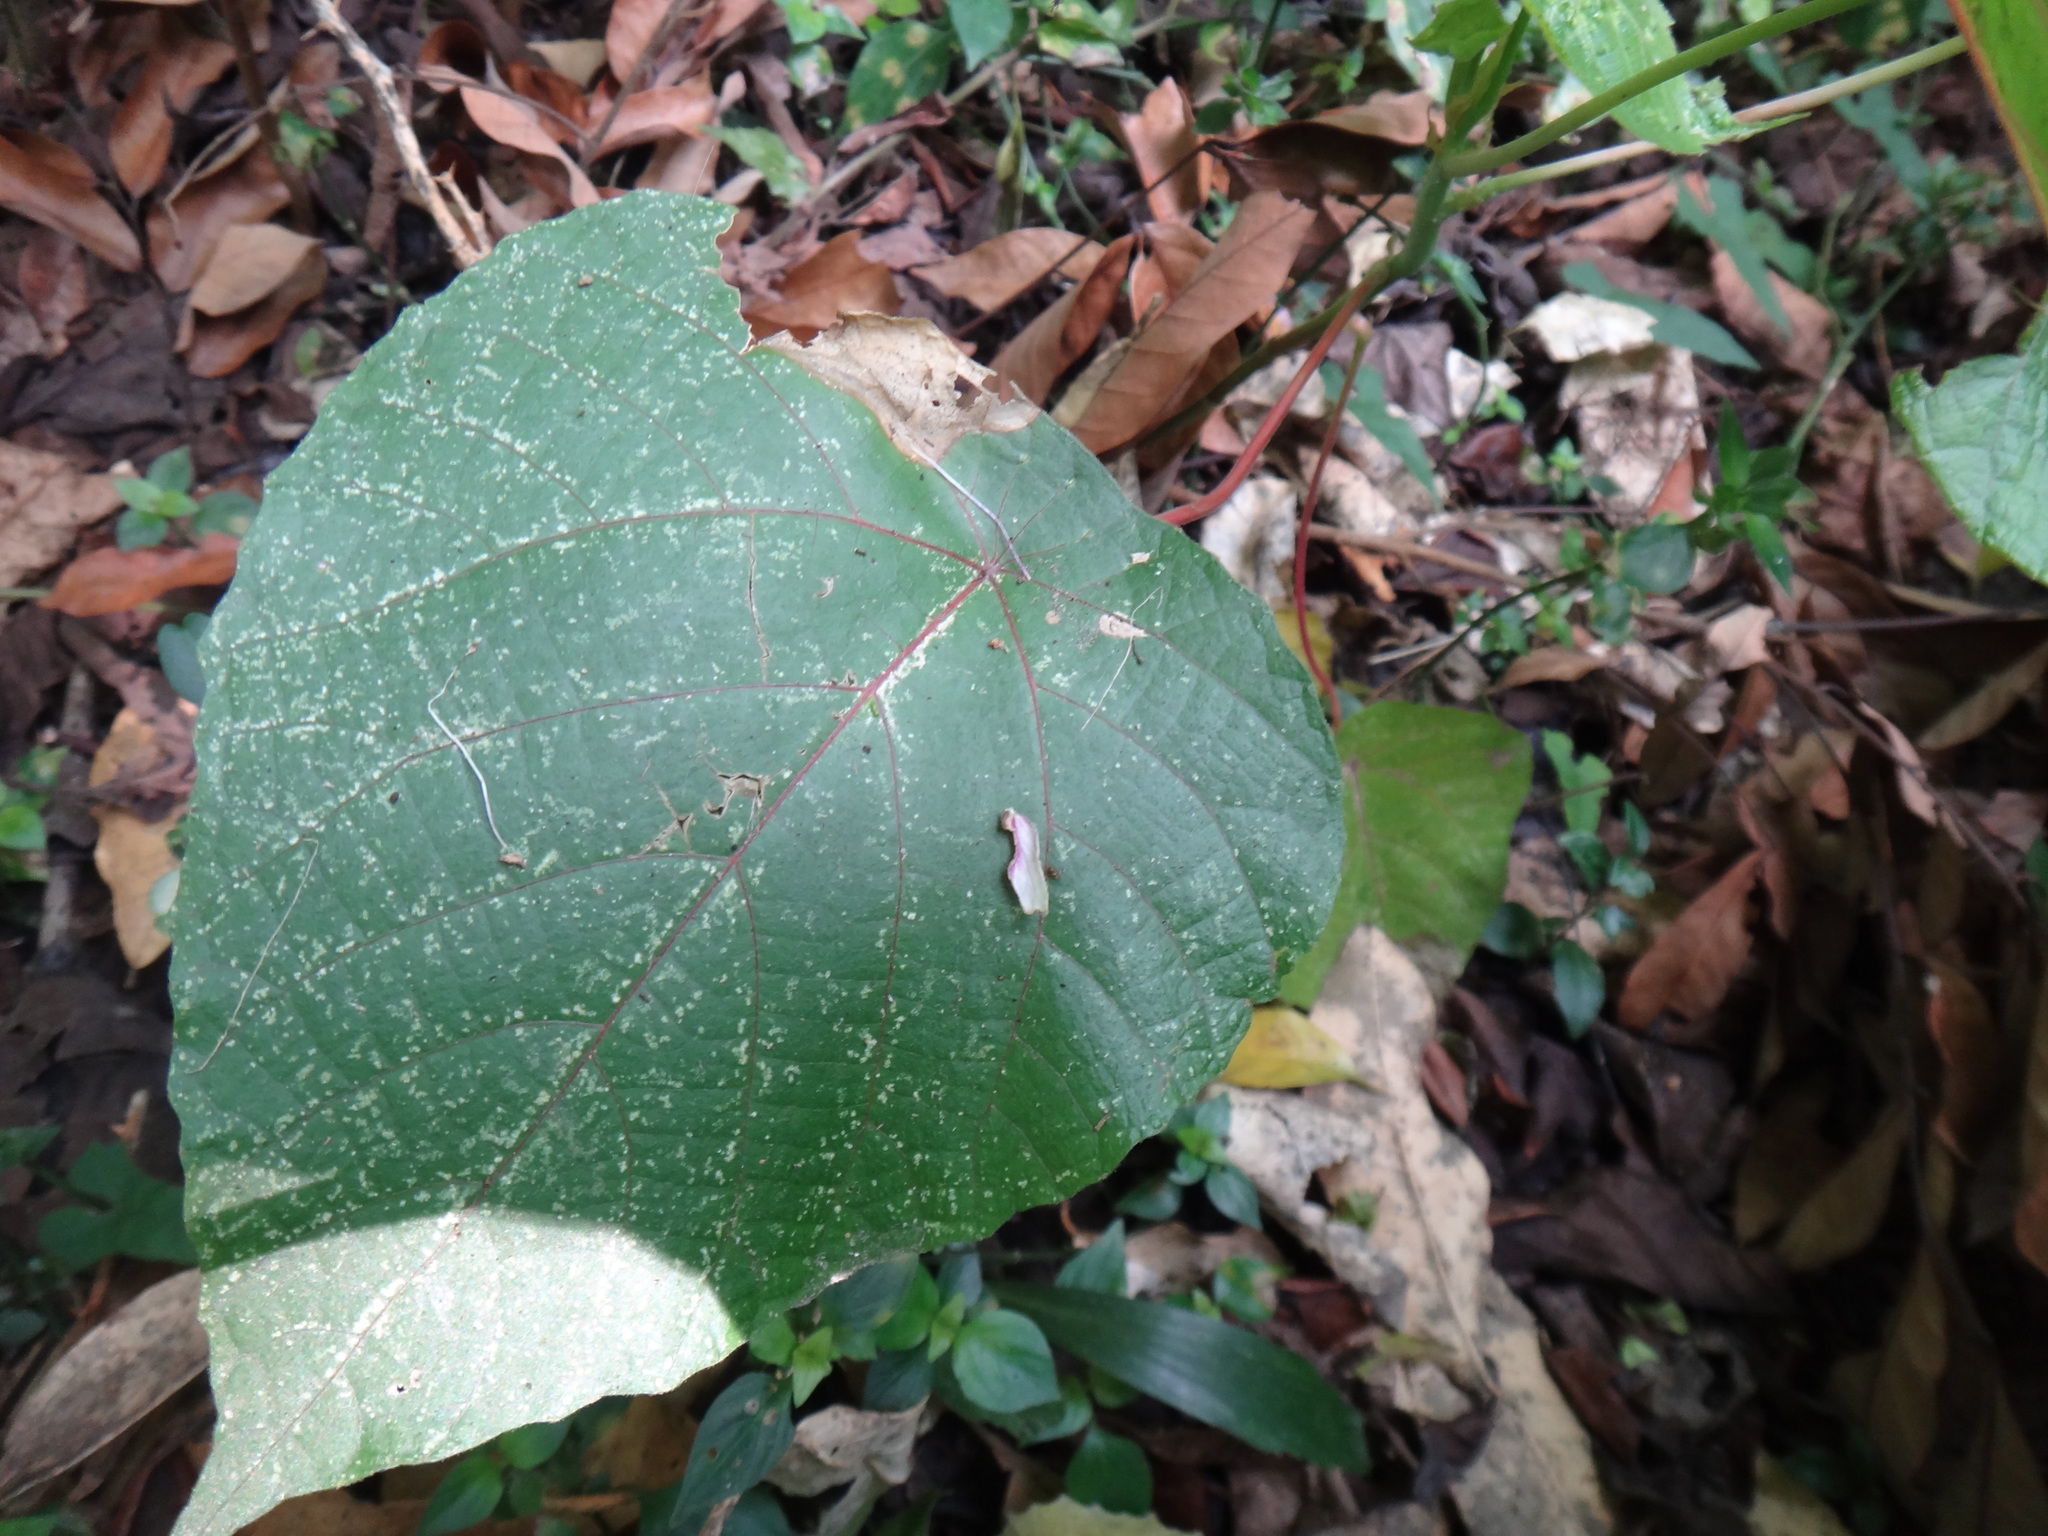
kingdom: Plantae
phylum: Tracheophyta
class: Magnoliopsida
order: Malpighiales
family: Euphorbiaceae
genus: Macaranga
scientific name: Macaranga tanarius
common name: Parasol leaf tree
